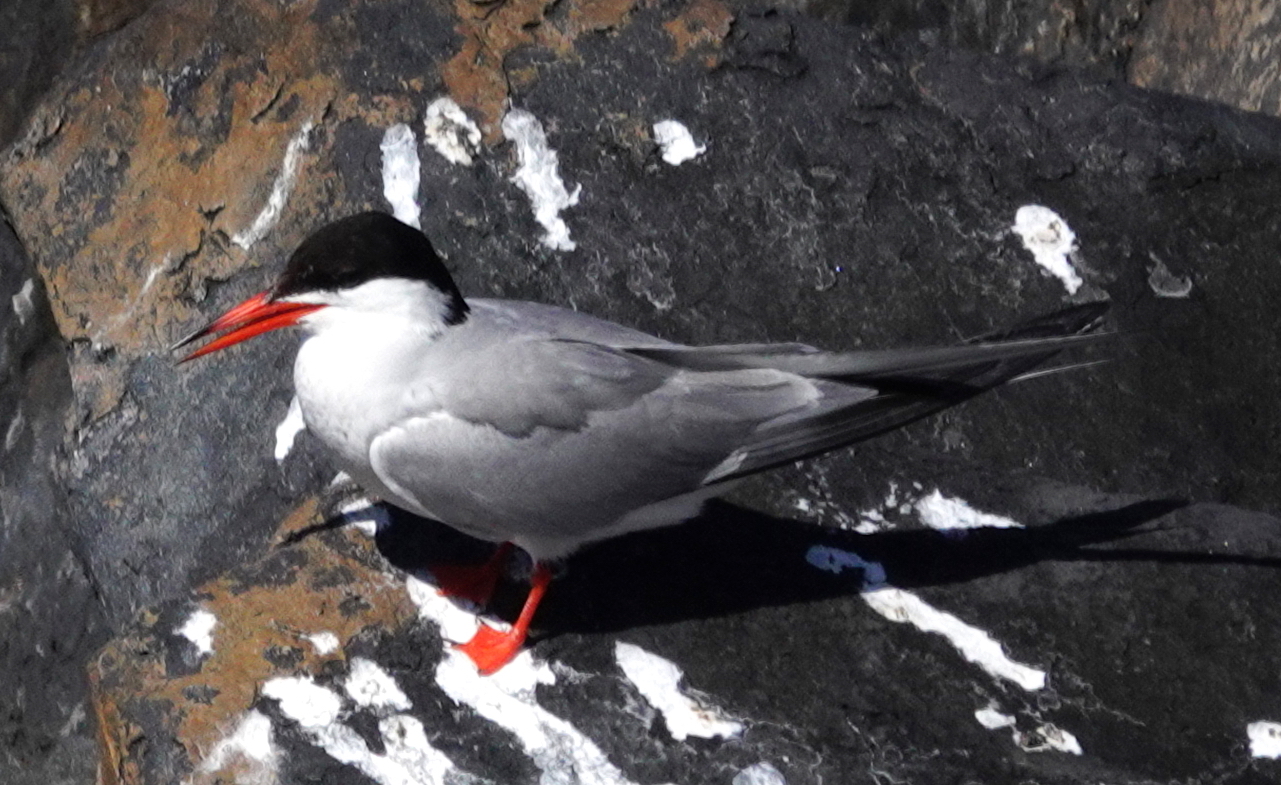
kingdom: Animalia
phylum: Chordata
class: Aves
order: Charadriiformes
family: Laridae
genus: Sterna
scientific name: Sterna hirundo
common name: Common tern
